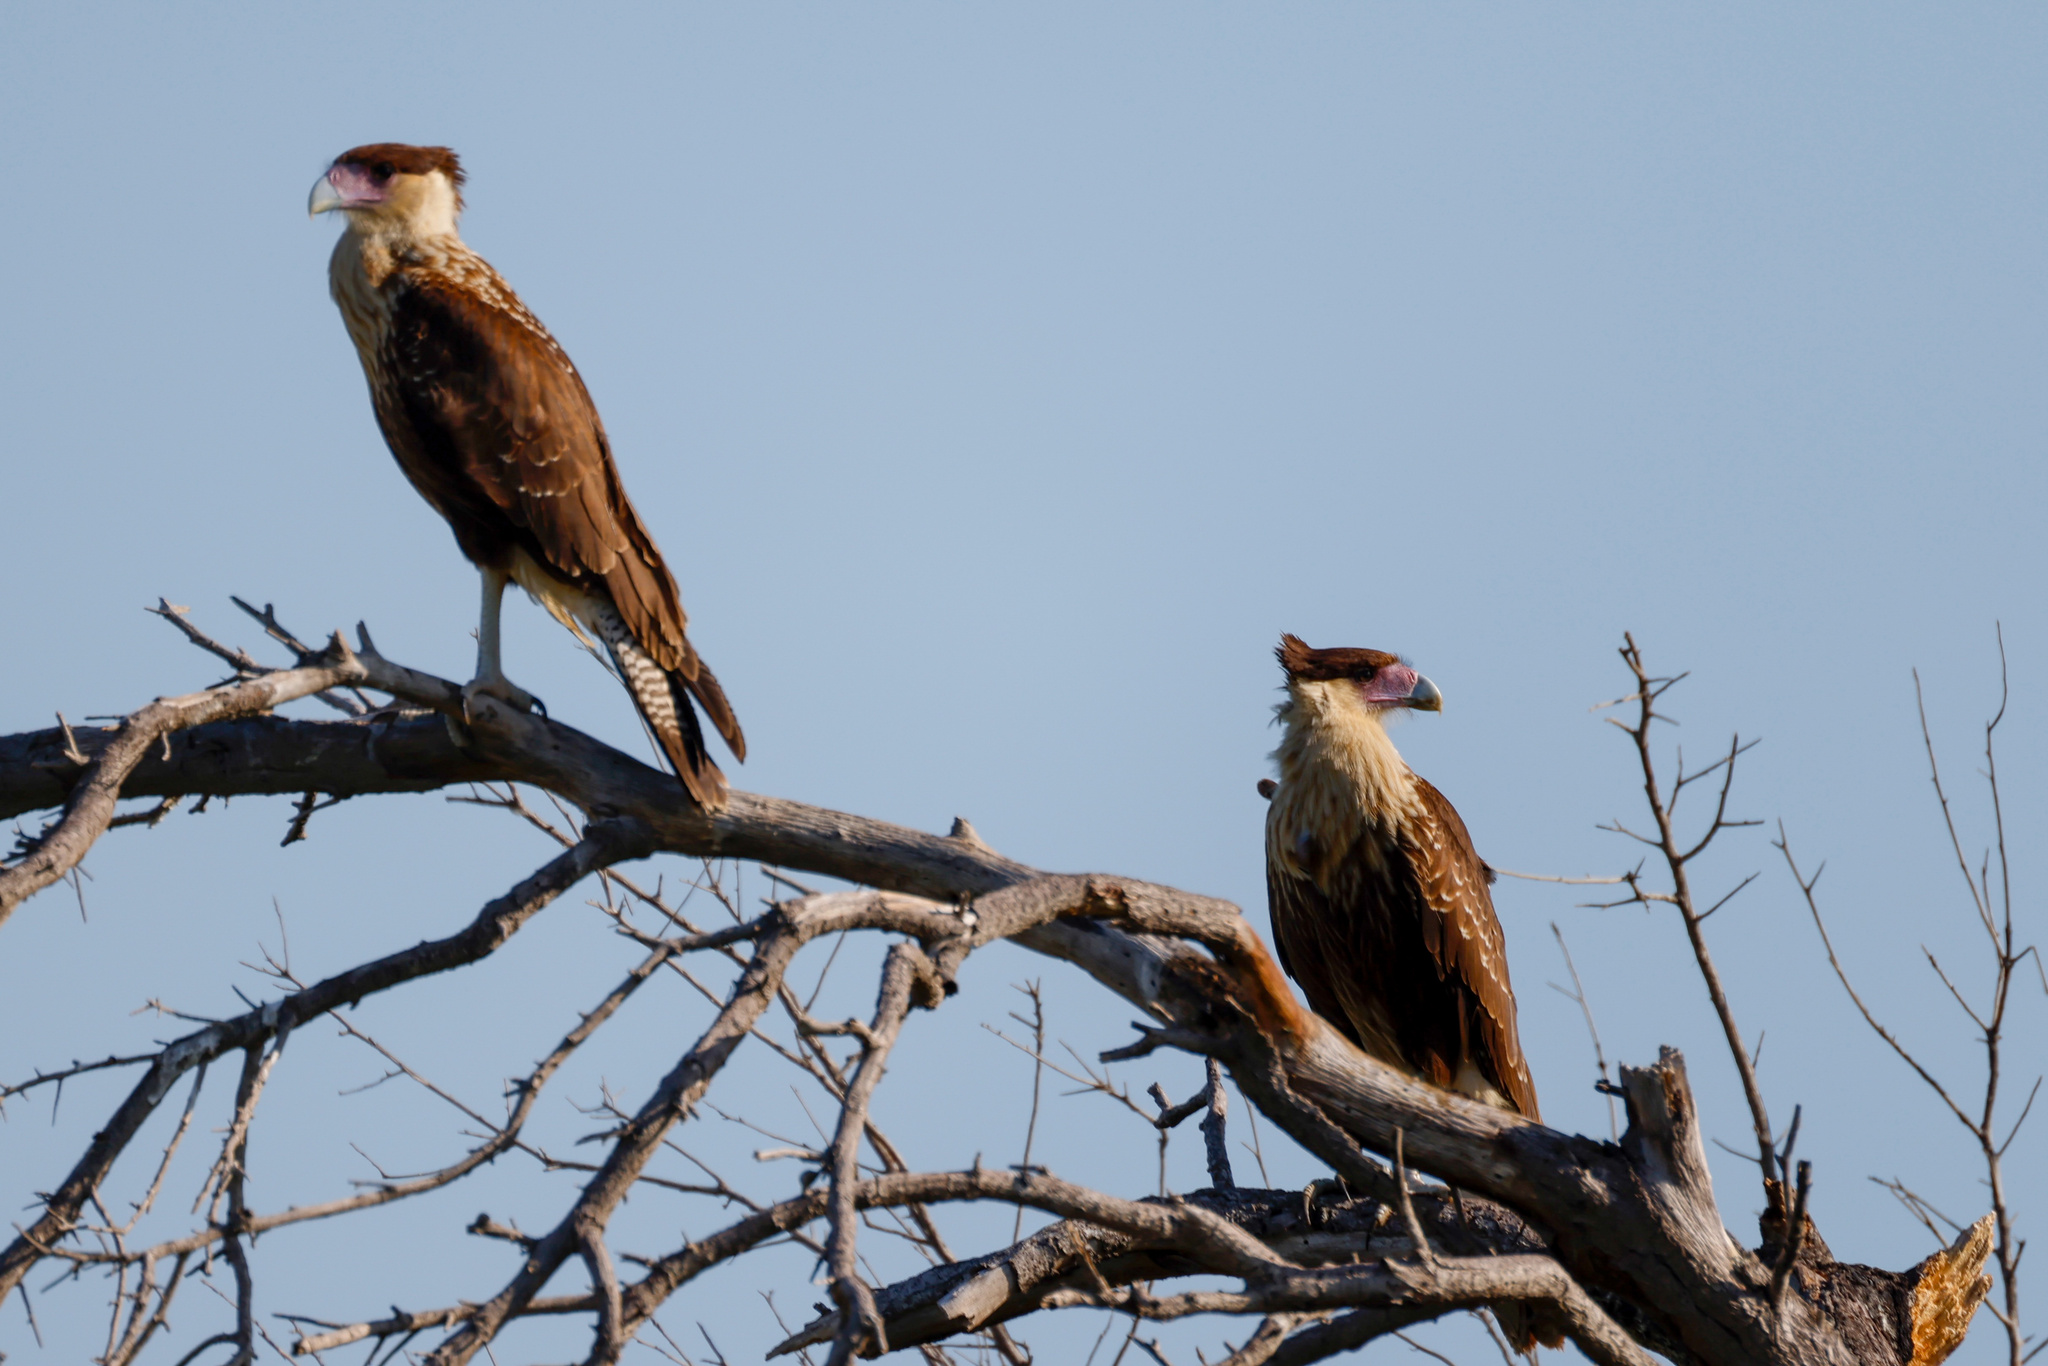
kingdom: Animalia
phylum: Chordata
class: Aves
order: Falconiformes
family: Falconidae
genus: Caracara
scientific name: Caracara plancus
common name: Southern caracara
